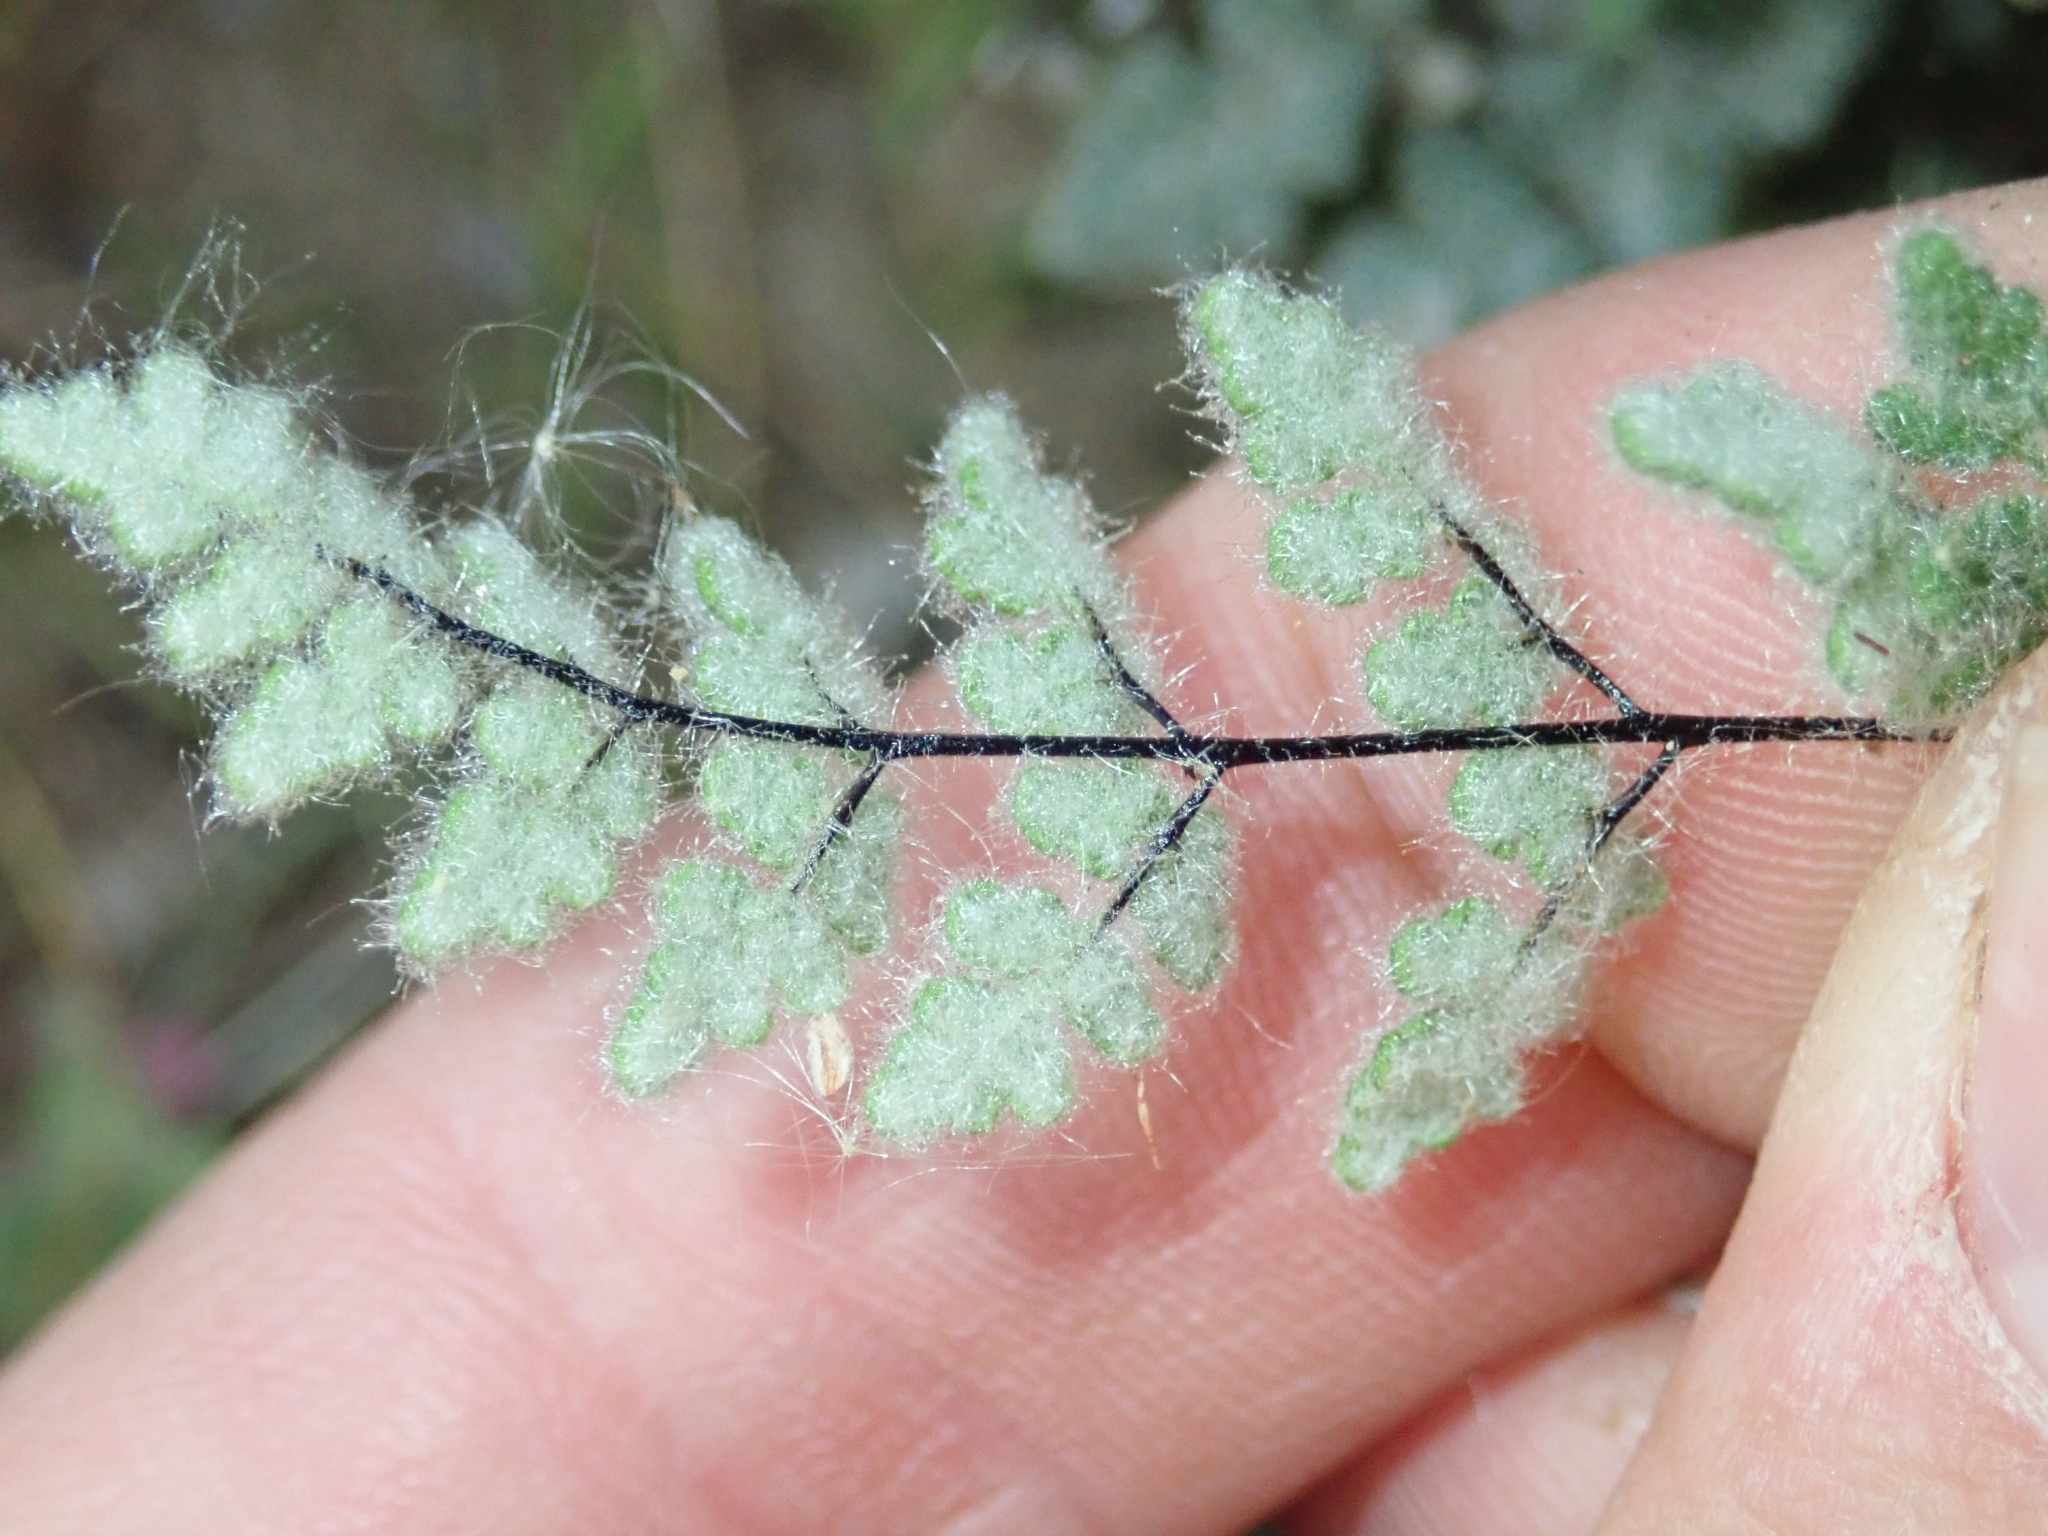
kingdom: Plantae
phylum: Tracheophyta
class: Polypodiopsida
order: Polypodiales
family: Pteridaceae
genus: Myriopteris
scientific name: Myriopteris parryi
